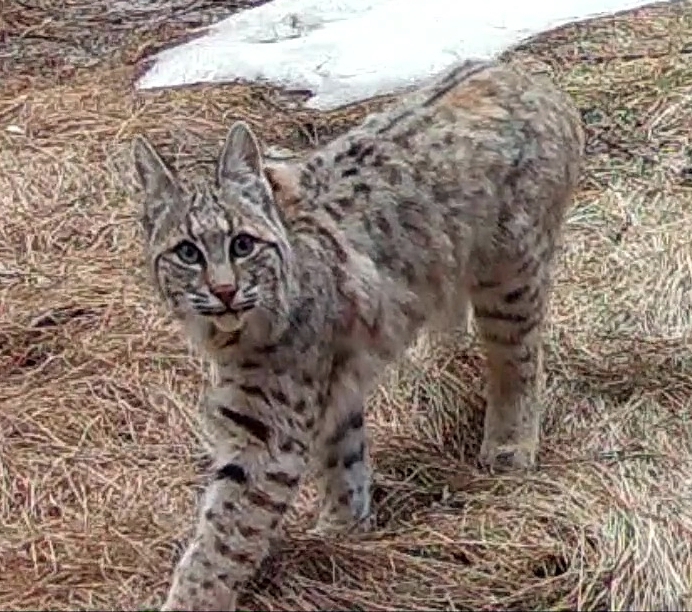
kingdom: Animalia
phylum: Chordata
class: Mammalia
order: Carnivora
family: Felidae
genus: Lynx
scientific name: Lynx rufus
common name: Bobcat
